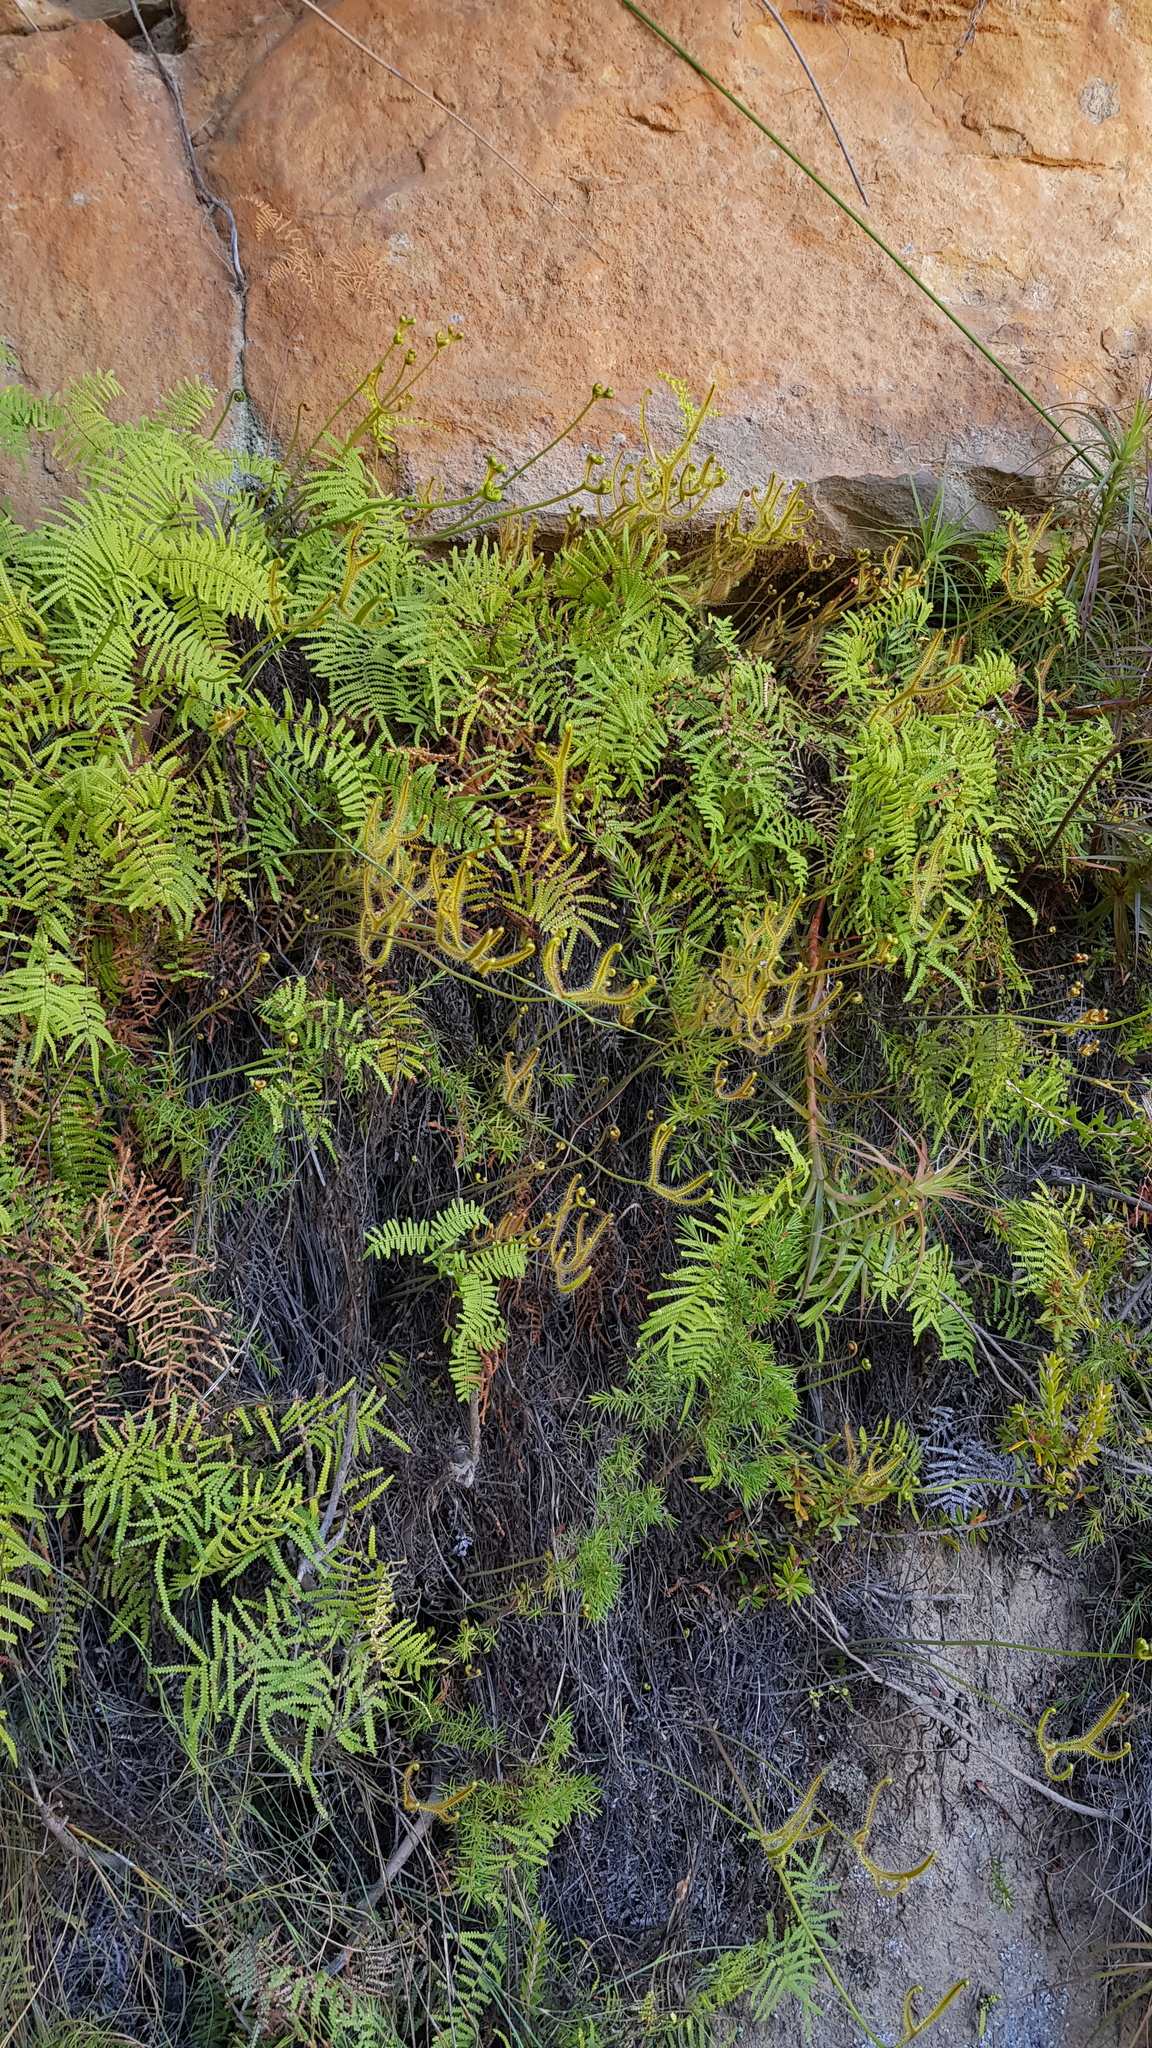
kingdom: Plantae
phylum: Tracheophyta
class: Magnoliopsida
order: Caryophyllales
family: Droseraceae
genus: Drosera
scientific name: Drosera binata
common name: Forked sundew
